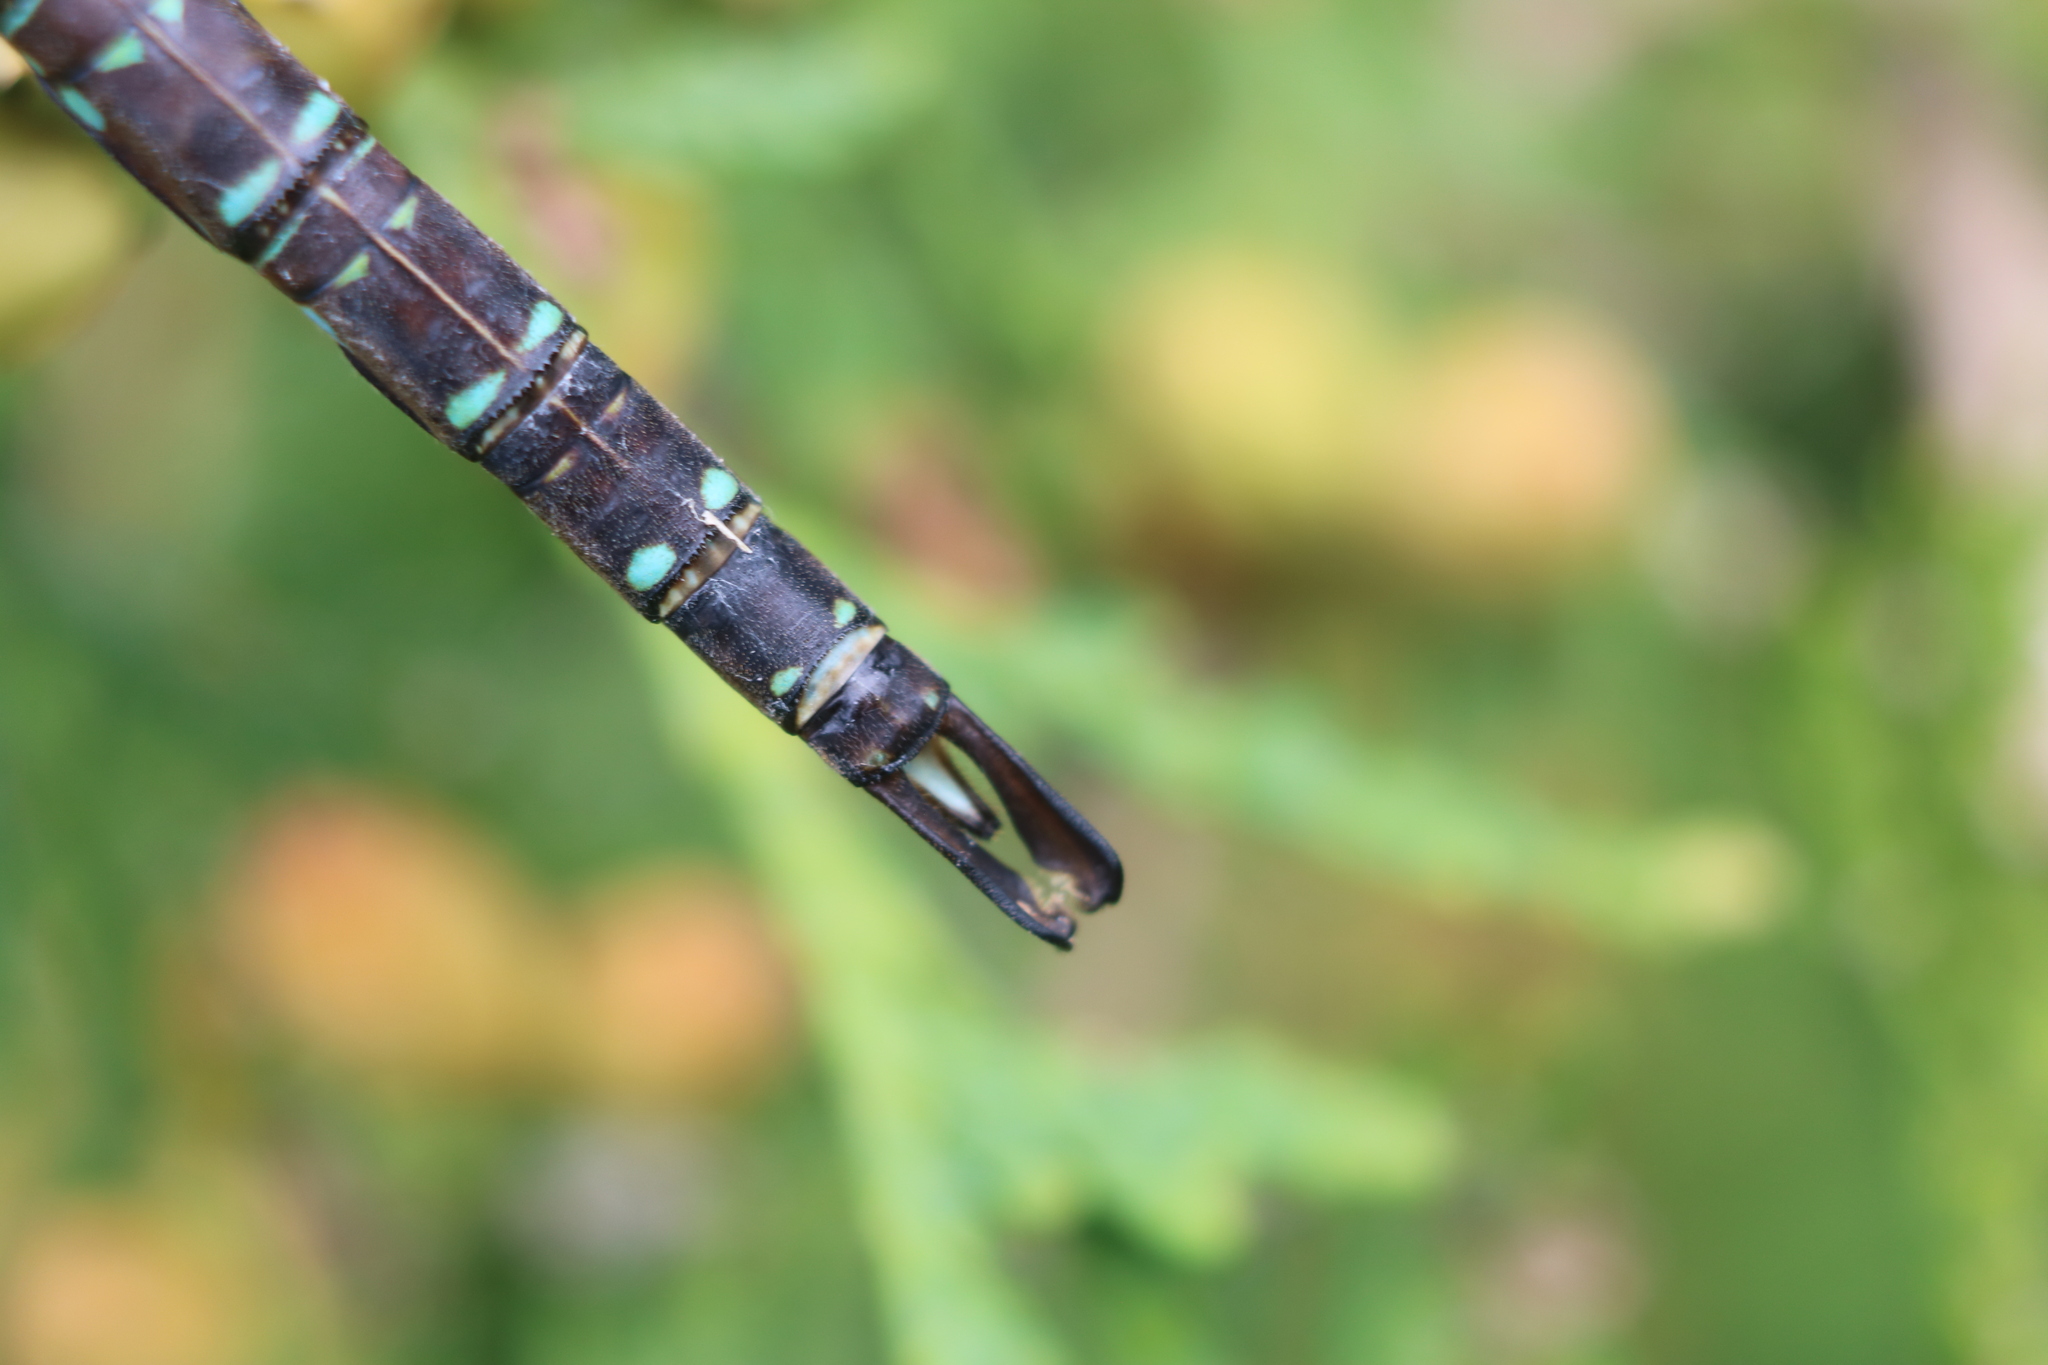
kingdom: Animalia
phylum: Arthropoda
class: Insecta
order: Odonata
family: Aeshnidae
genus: Aeshna
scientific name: Aeshna umbrosa
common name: Shadow darner
